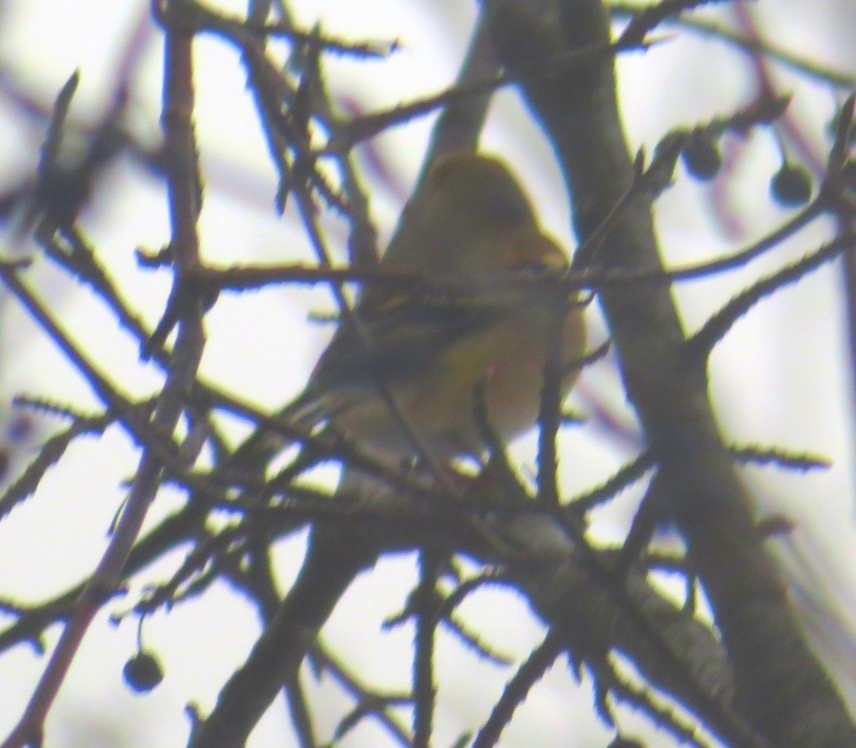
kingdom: Animalia
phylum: Chordata
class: Aves
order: Passeriformes
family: Fringillidae
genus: Spinus
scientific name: Spinus tristis
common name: American goldfinch
